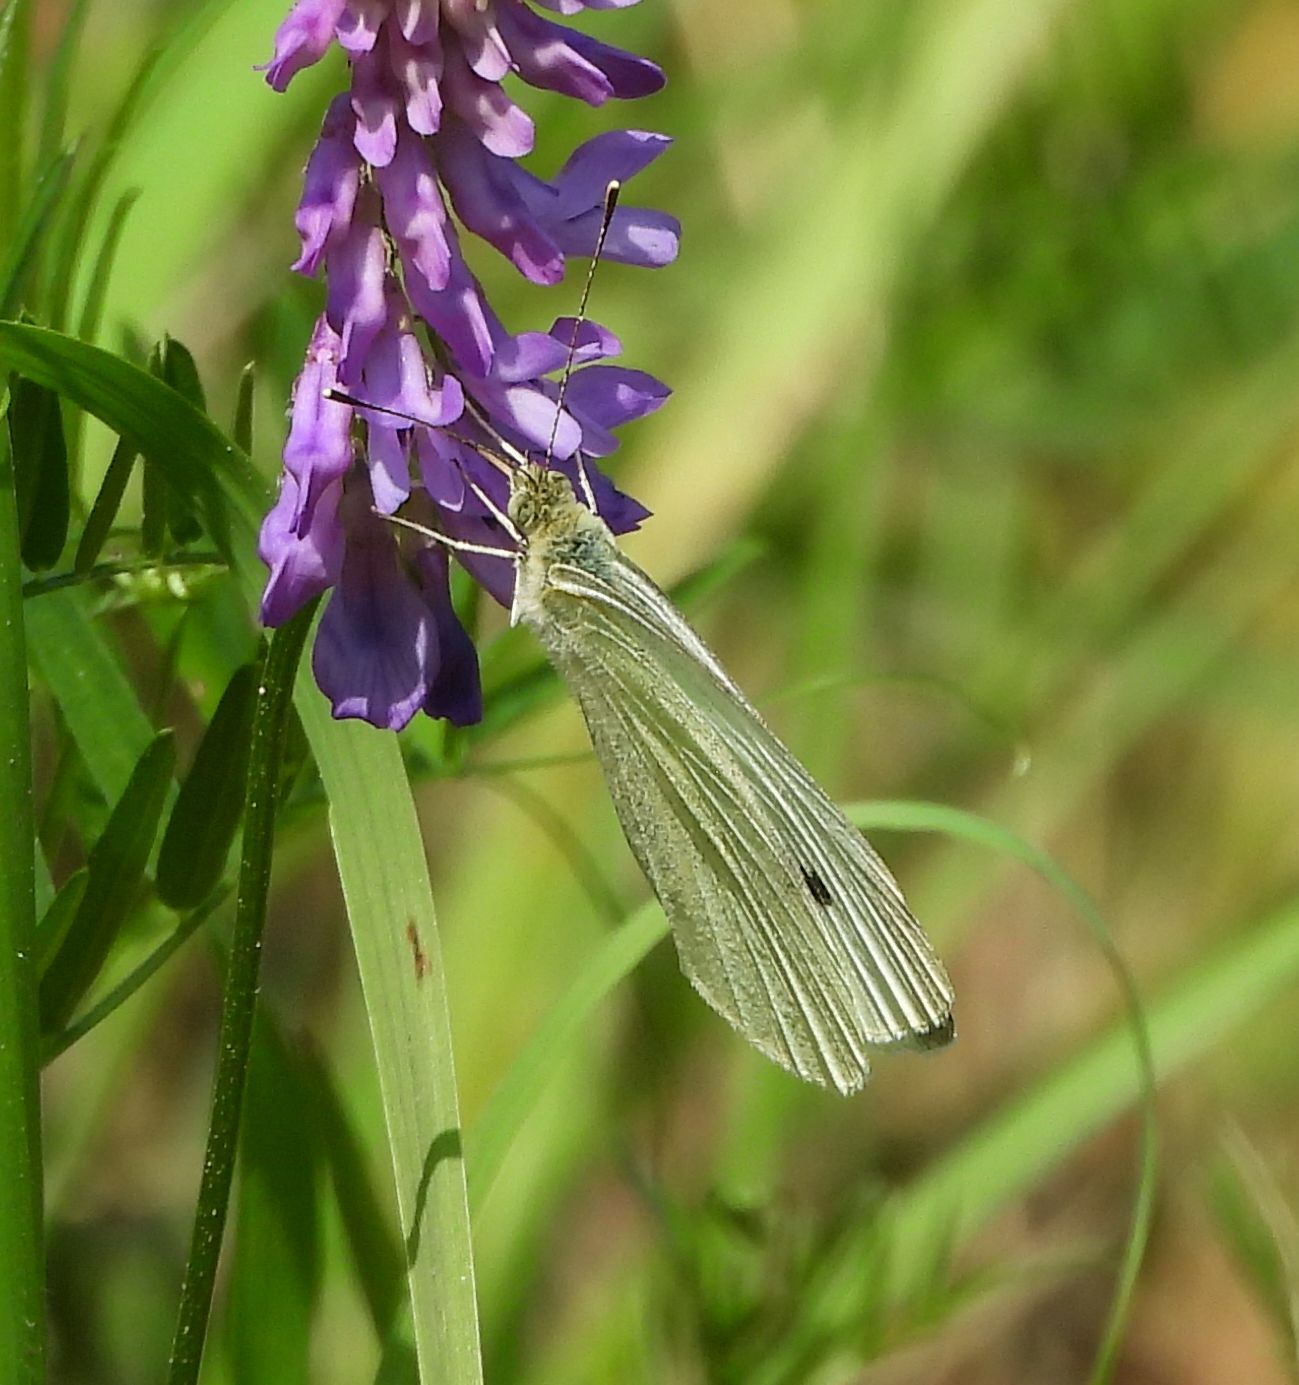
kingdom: Animalia
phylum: Arthropoda
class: Insecta
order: Lepidoptera
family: Pieridae
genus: Pieris
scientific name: Pieris rapae
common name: Small white
